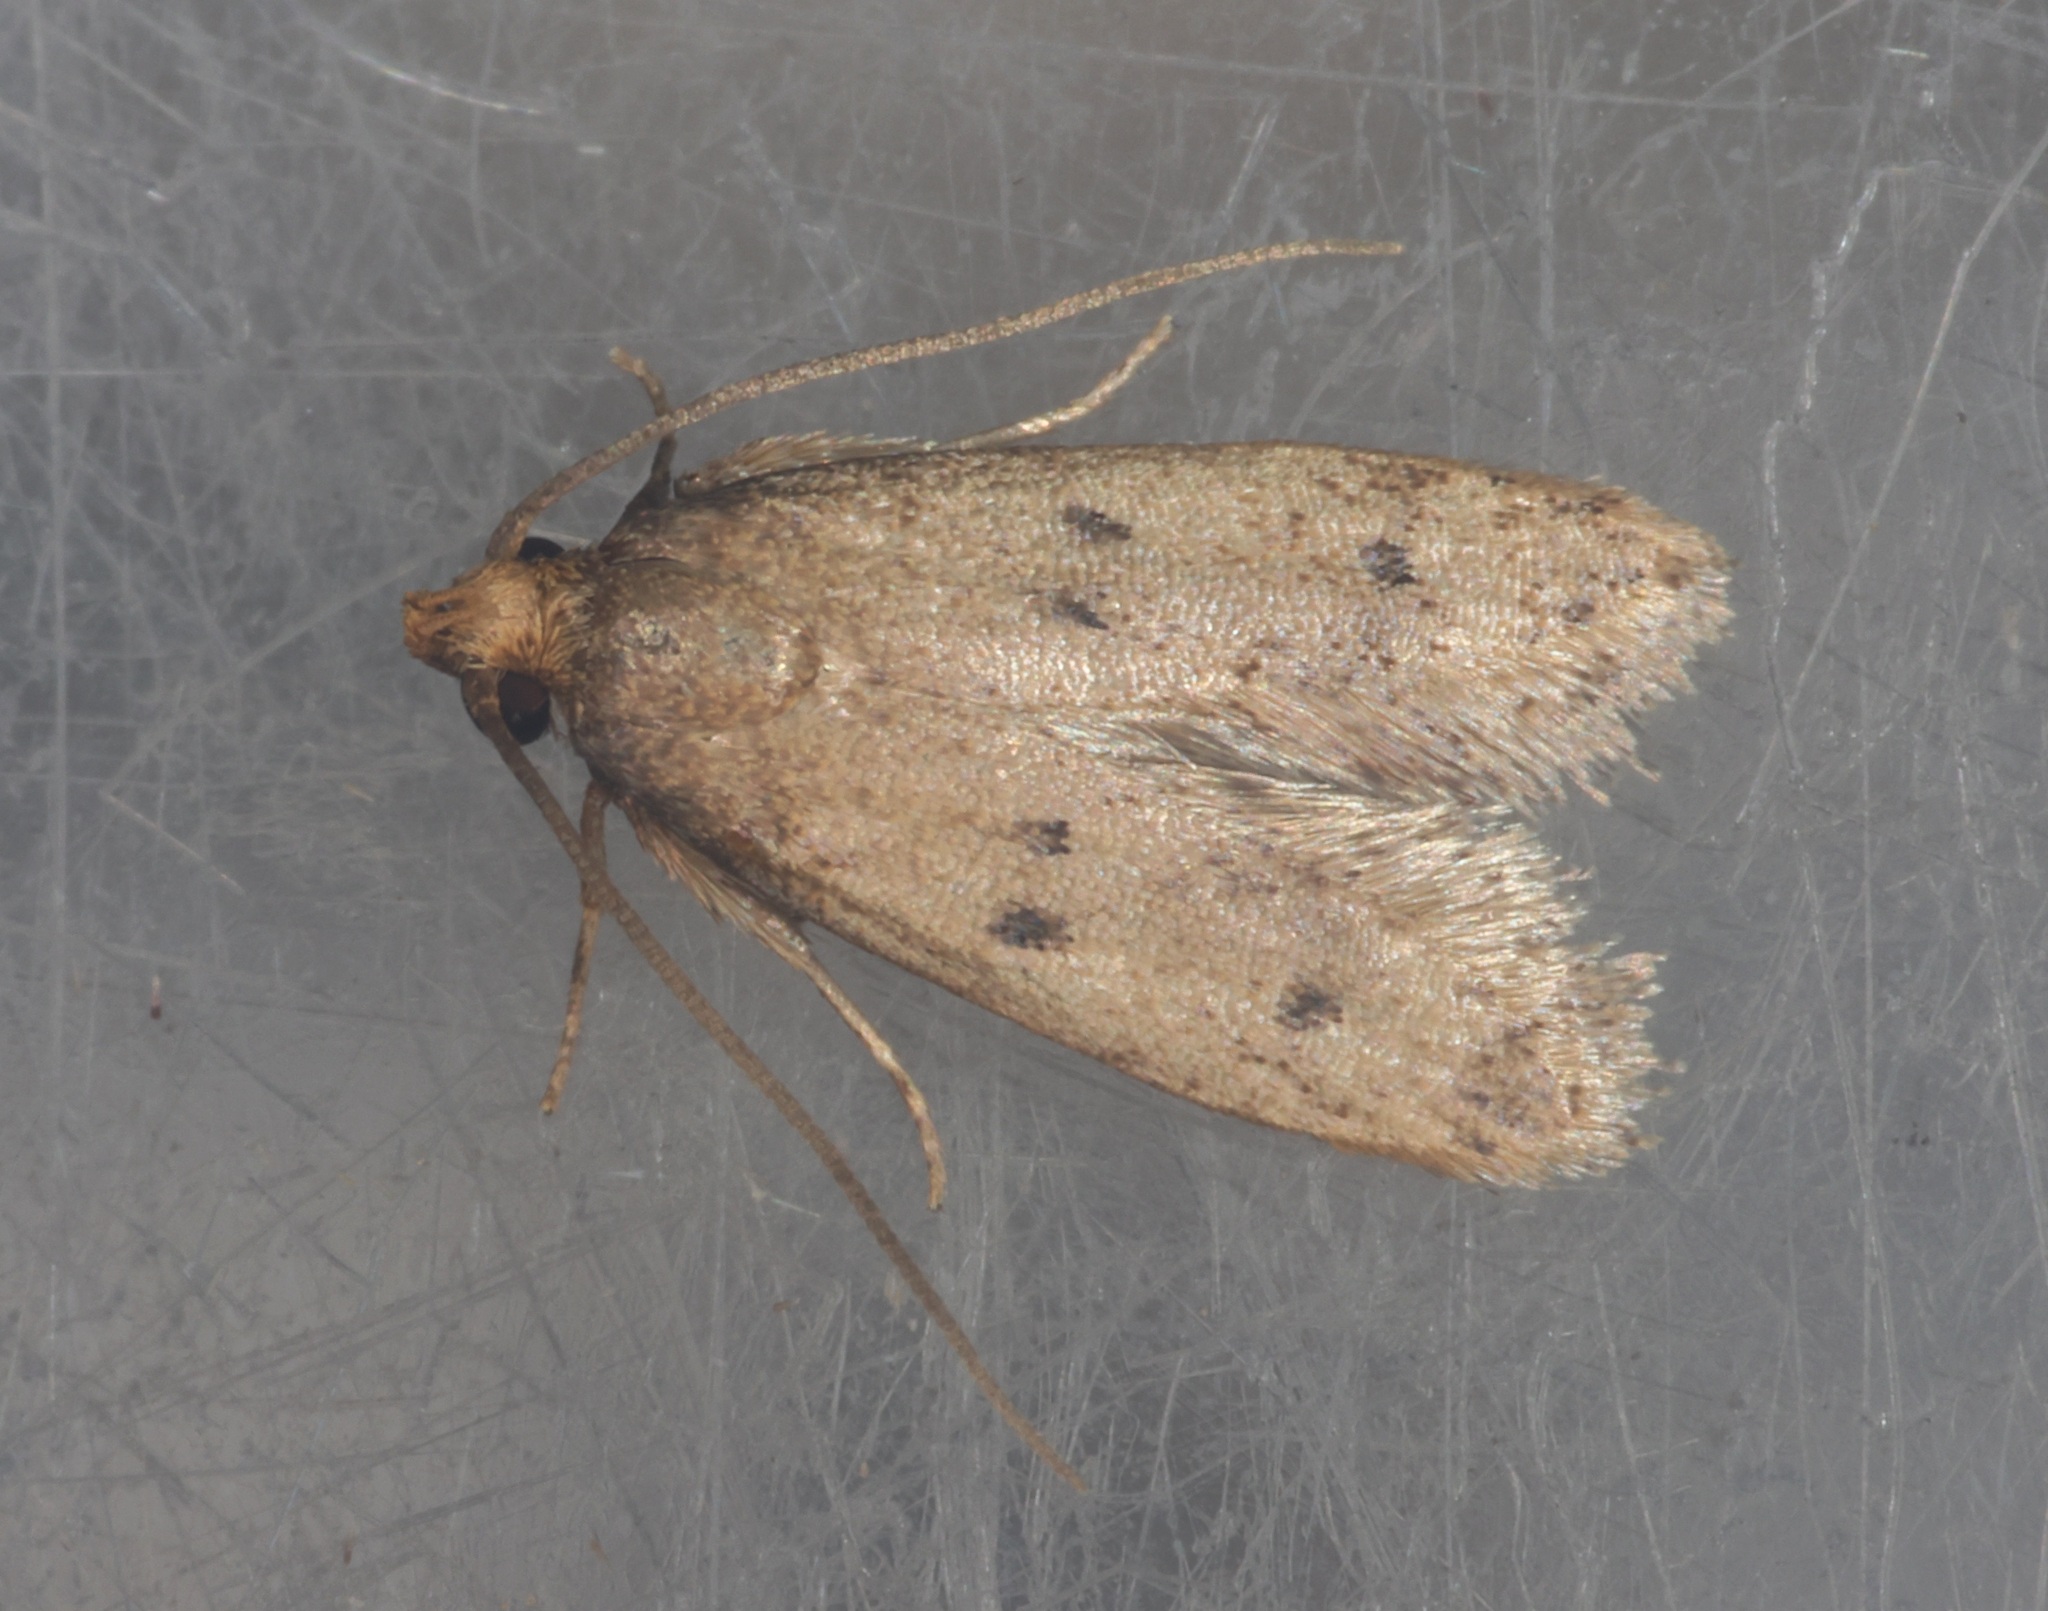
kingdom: Animalia
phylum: Arthropoda
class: Insecta
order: Lepidoptera
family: Oecophoridae
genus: Stereodytis
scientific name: Stereodytis acutidens
